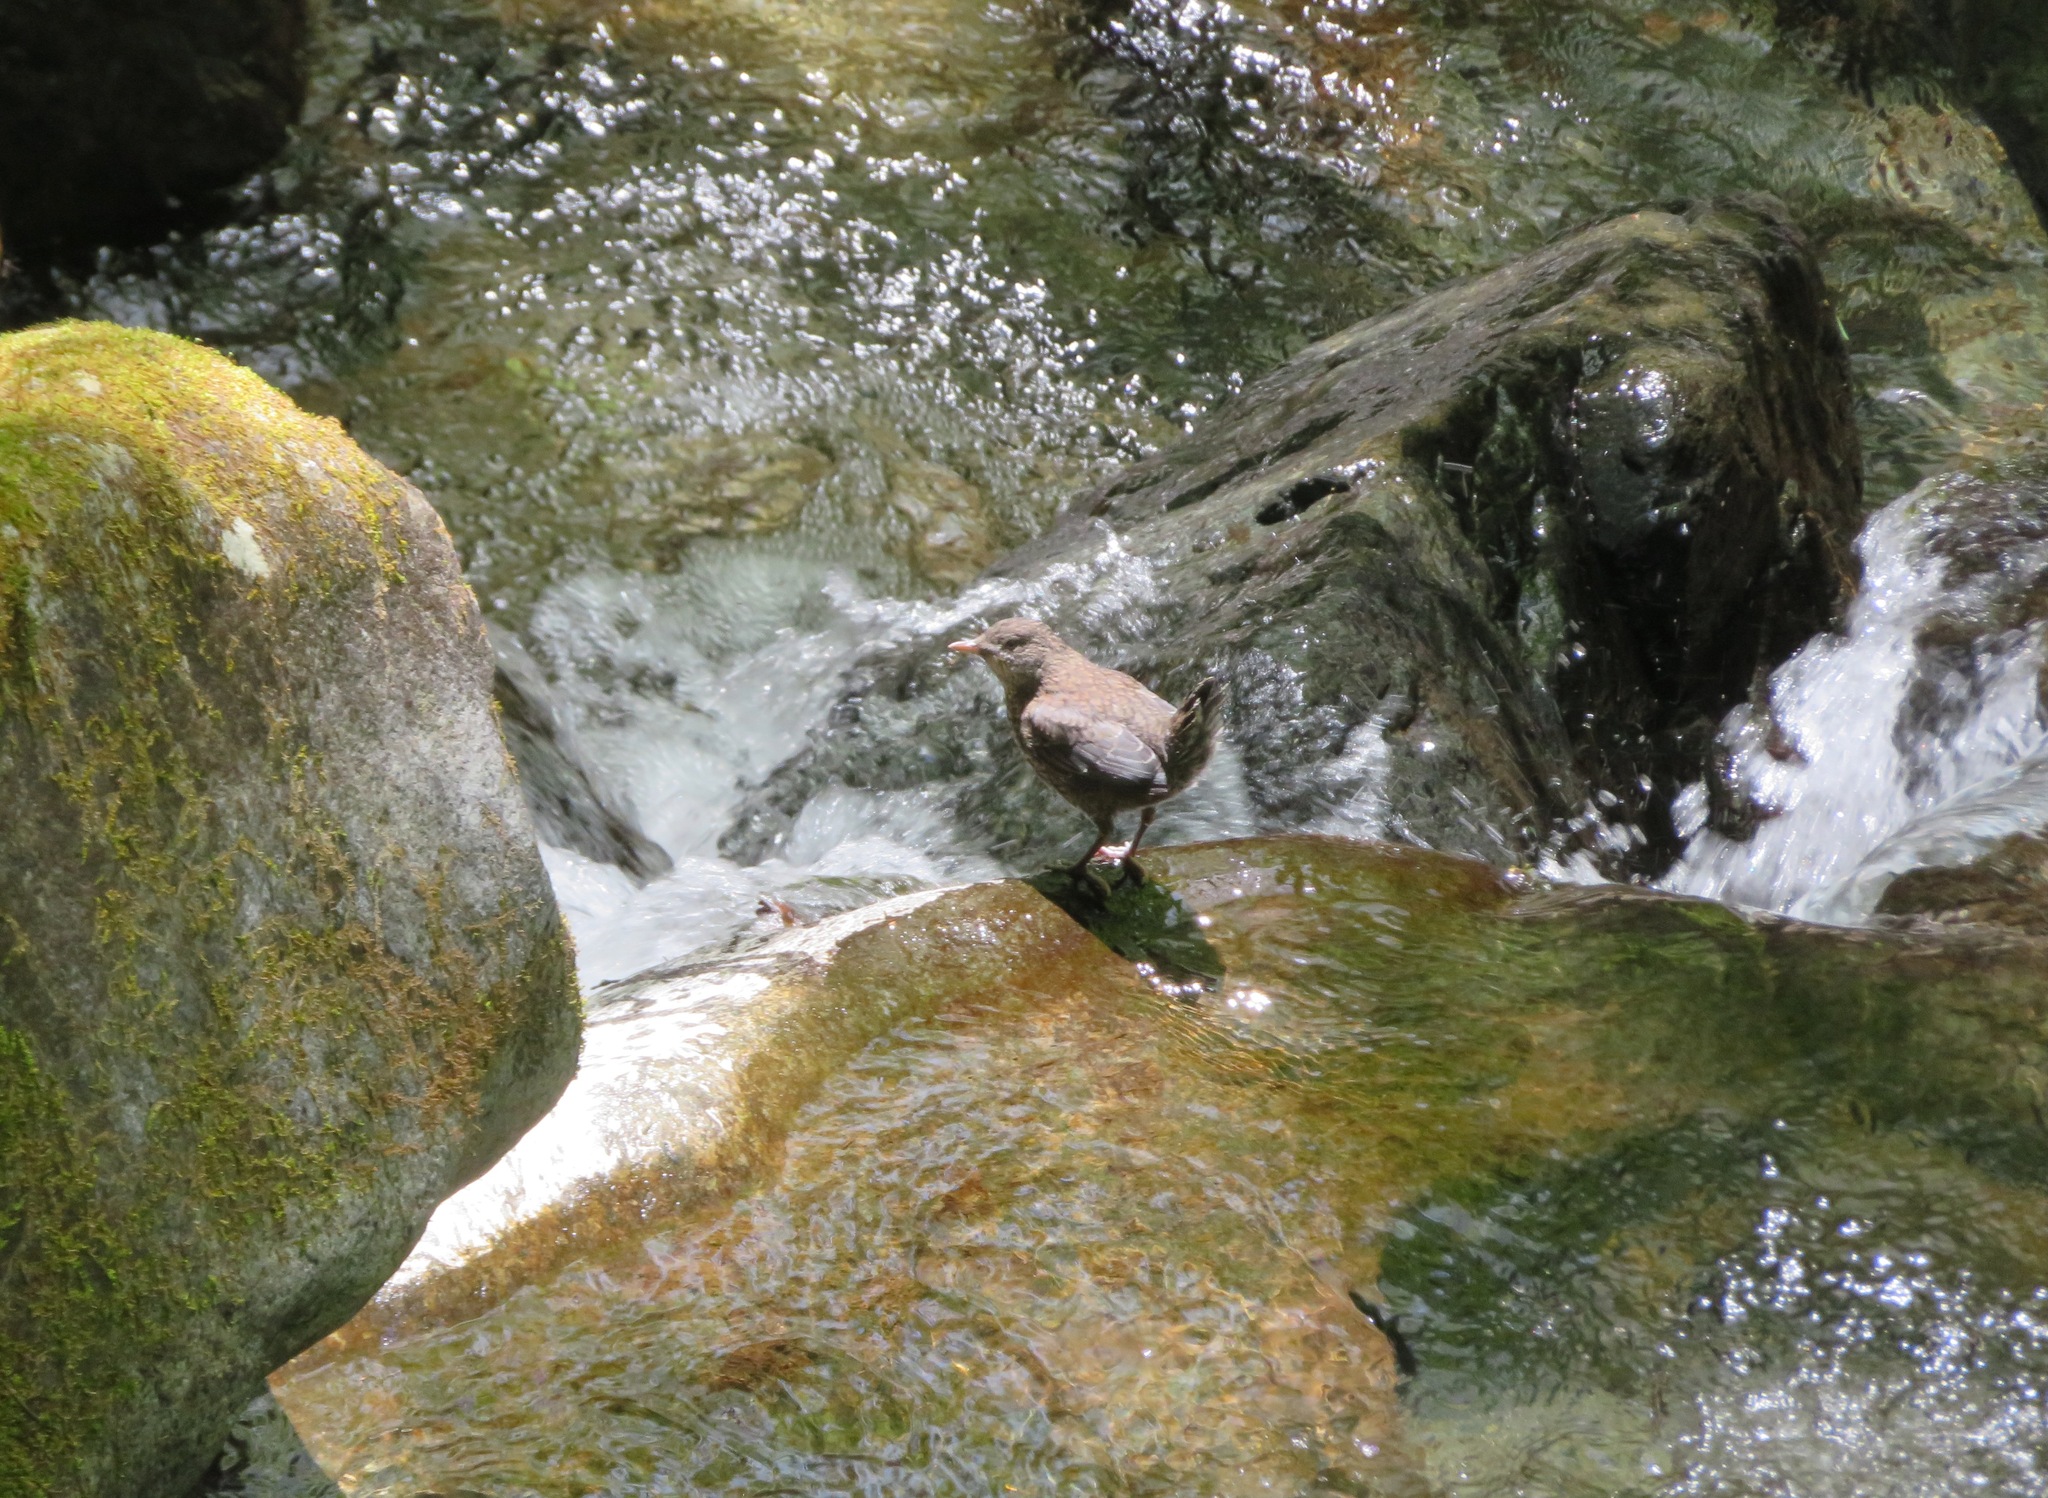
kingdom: Animalia
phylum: Chordata
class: Aves
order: Passeriformes
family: Cinclidae
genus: Cinclus
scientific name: Cinclus pallasii
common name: Brown dipper
